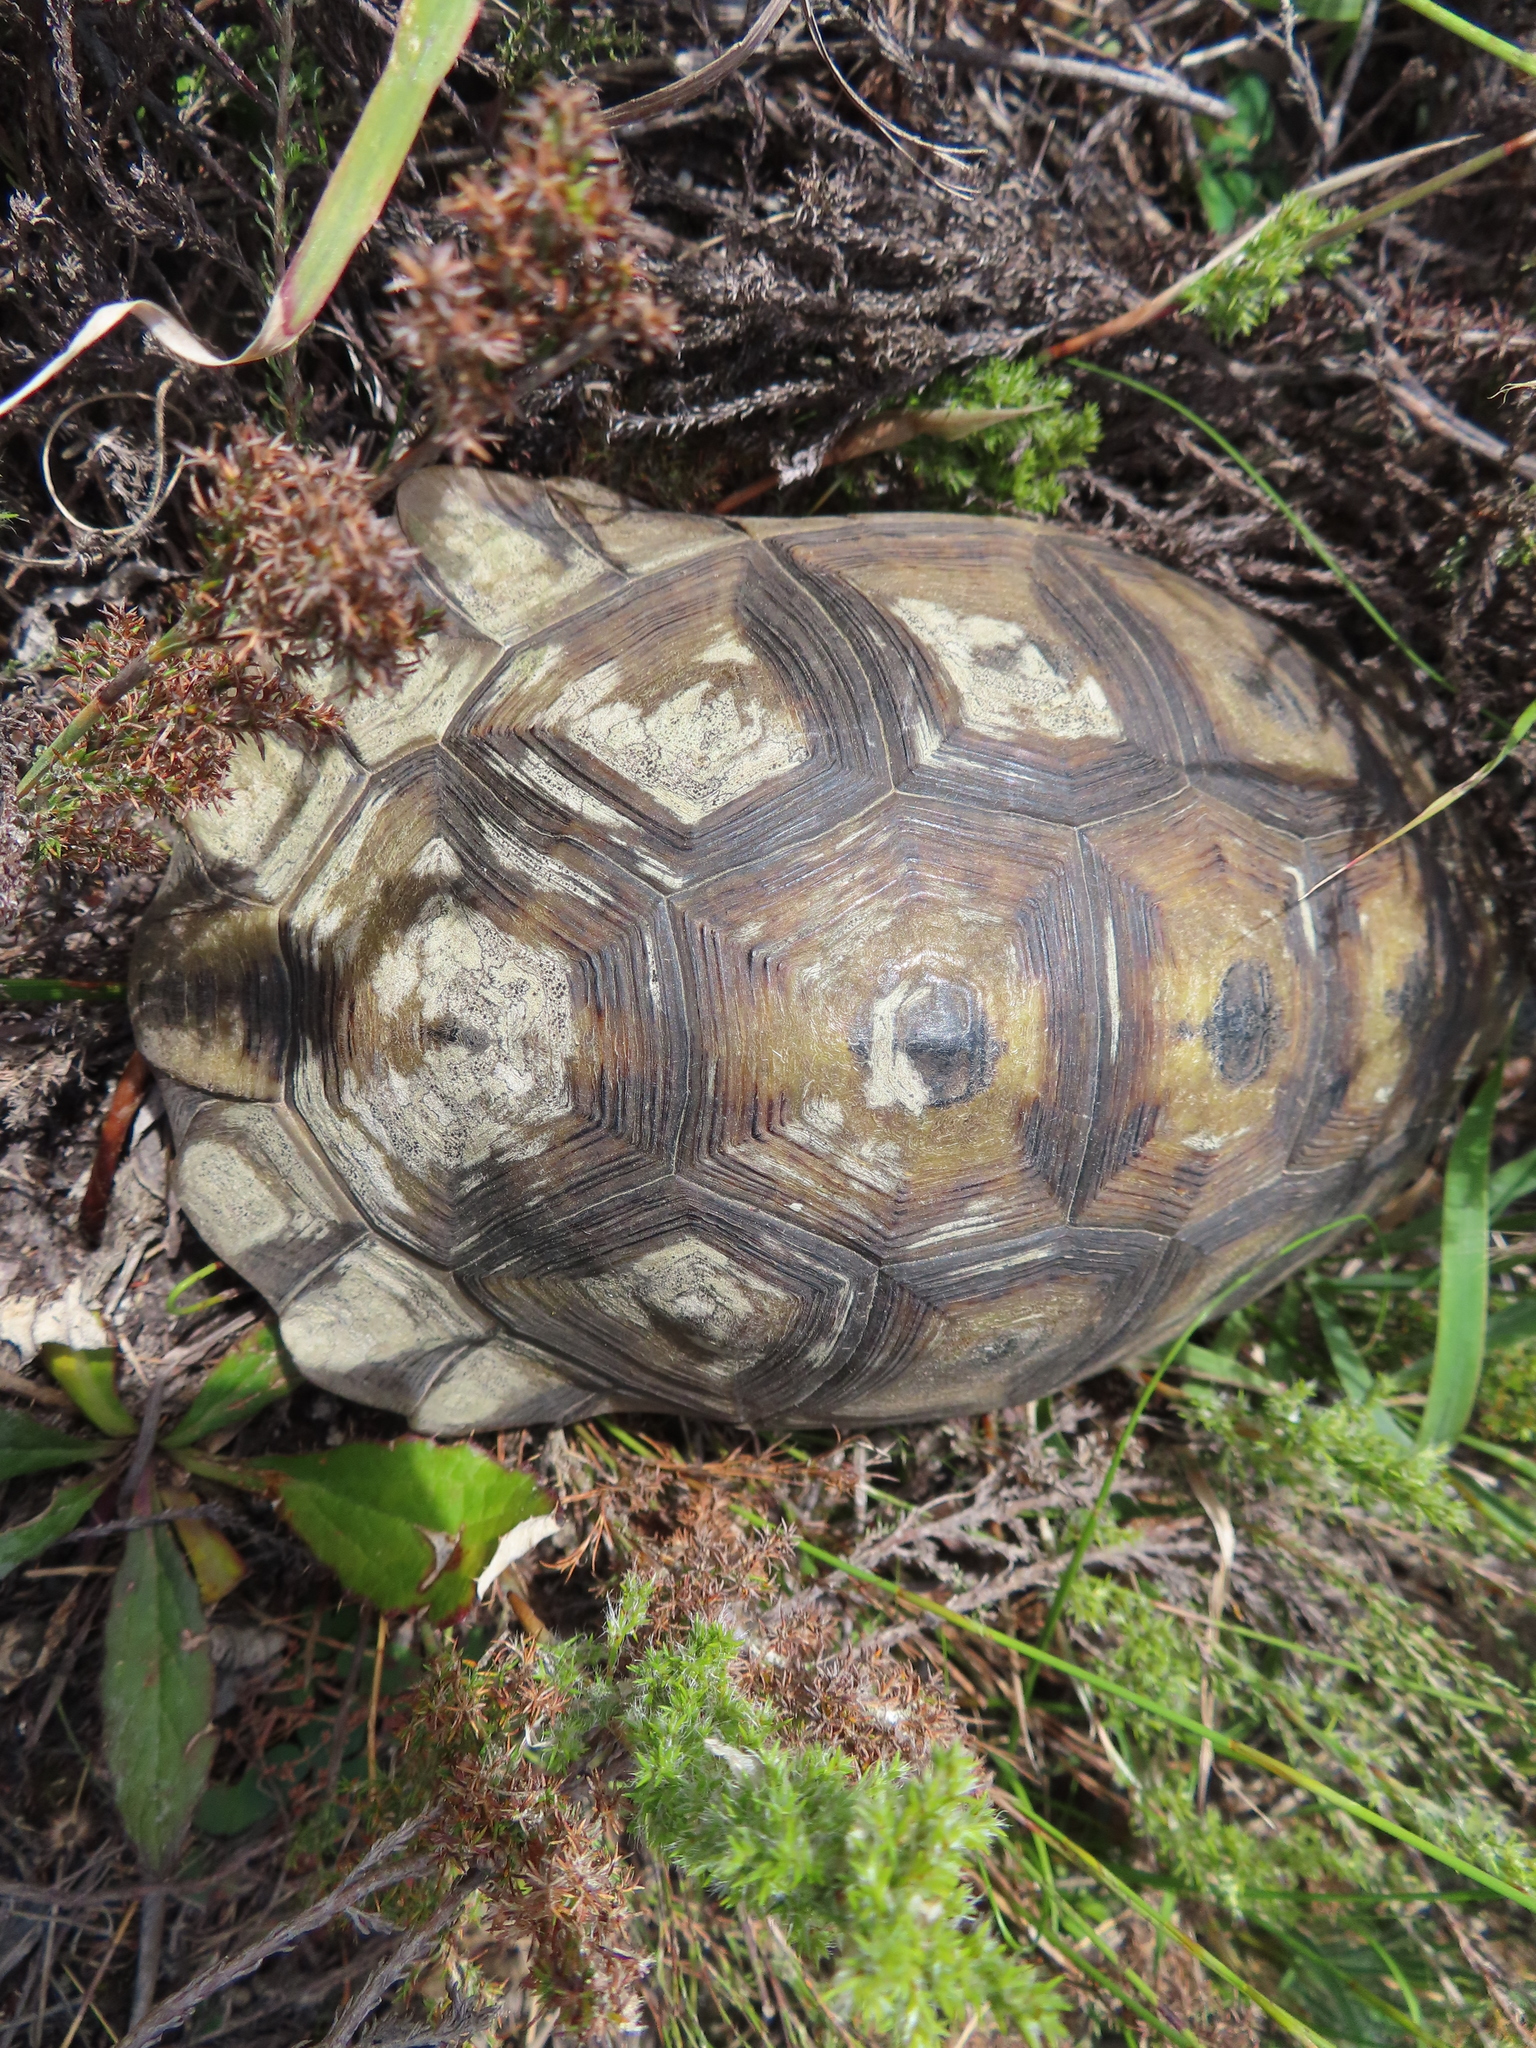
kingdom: Animalia
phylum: Chordata
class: Testudines
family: Testudinidae
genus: Chersina
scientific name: Chersina angulata
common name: South african bowsprit tortoise
